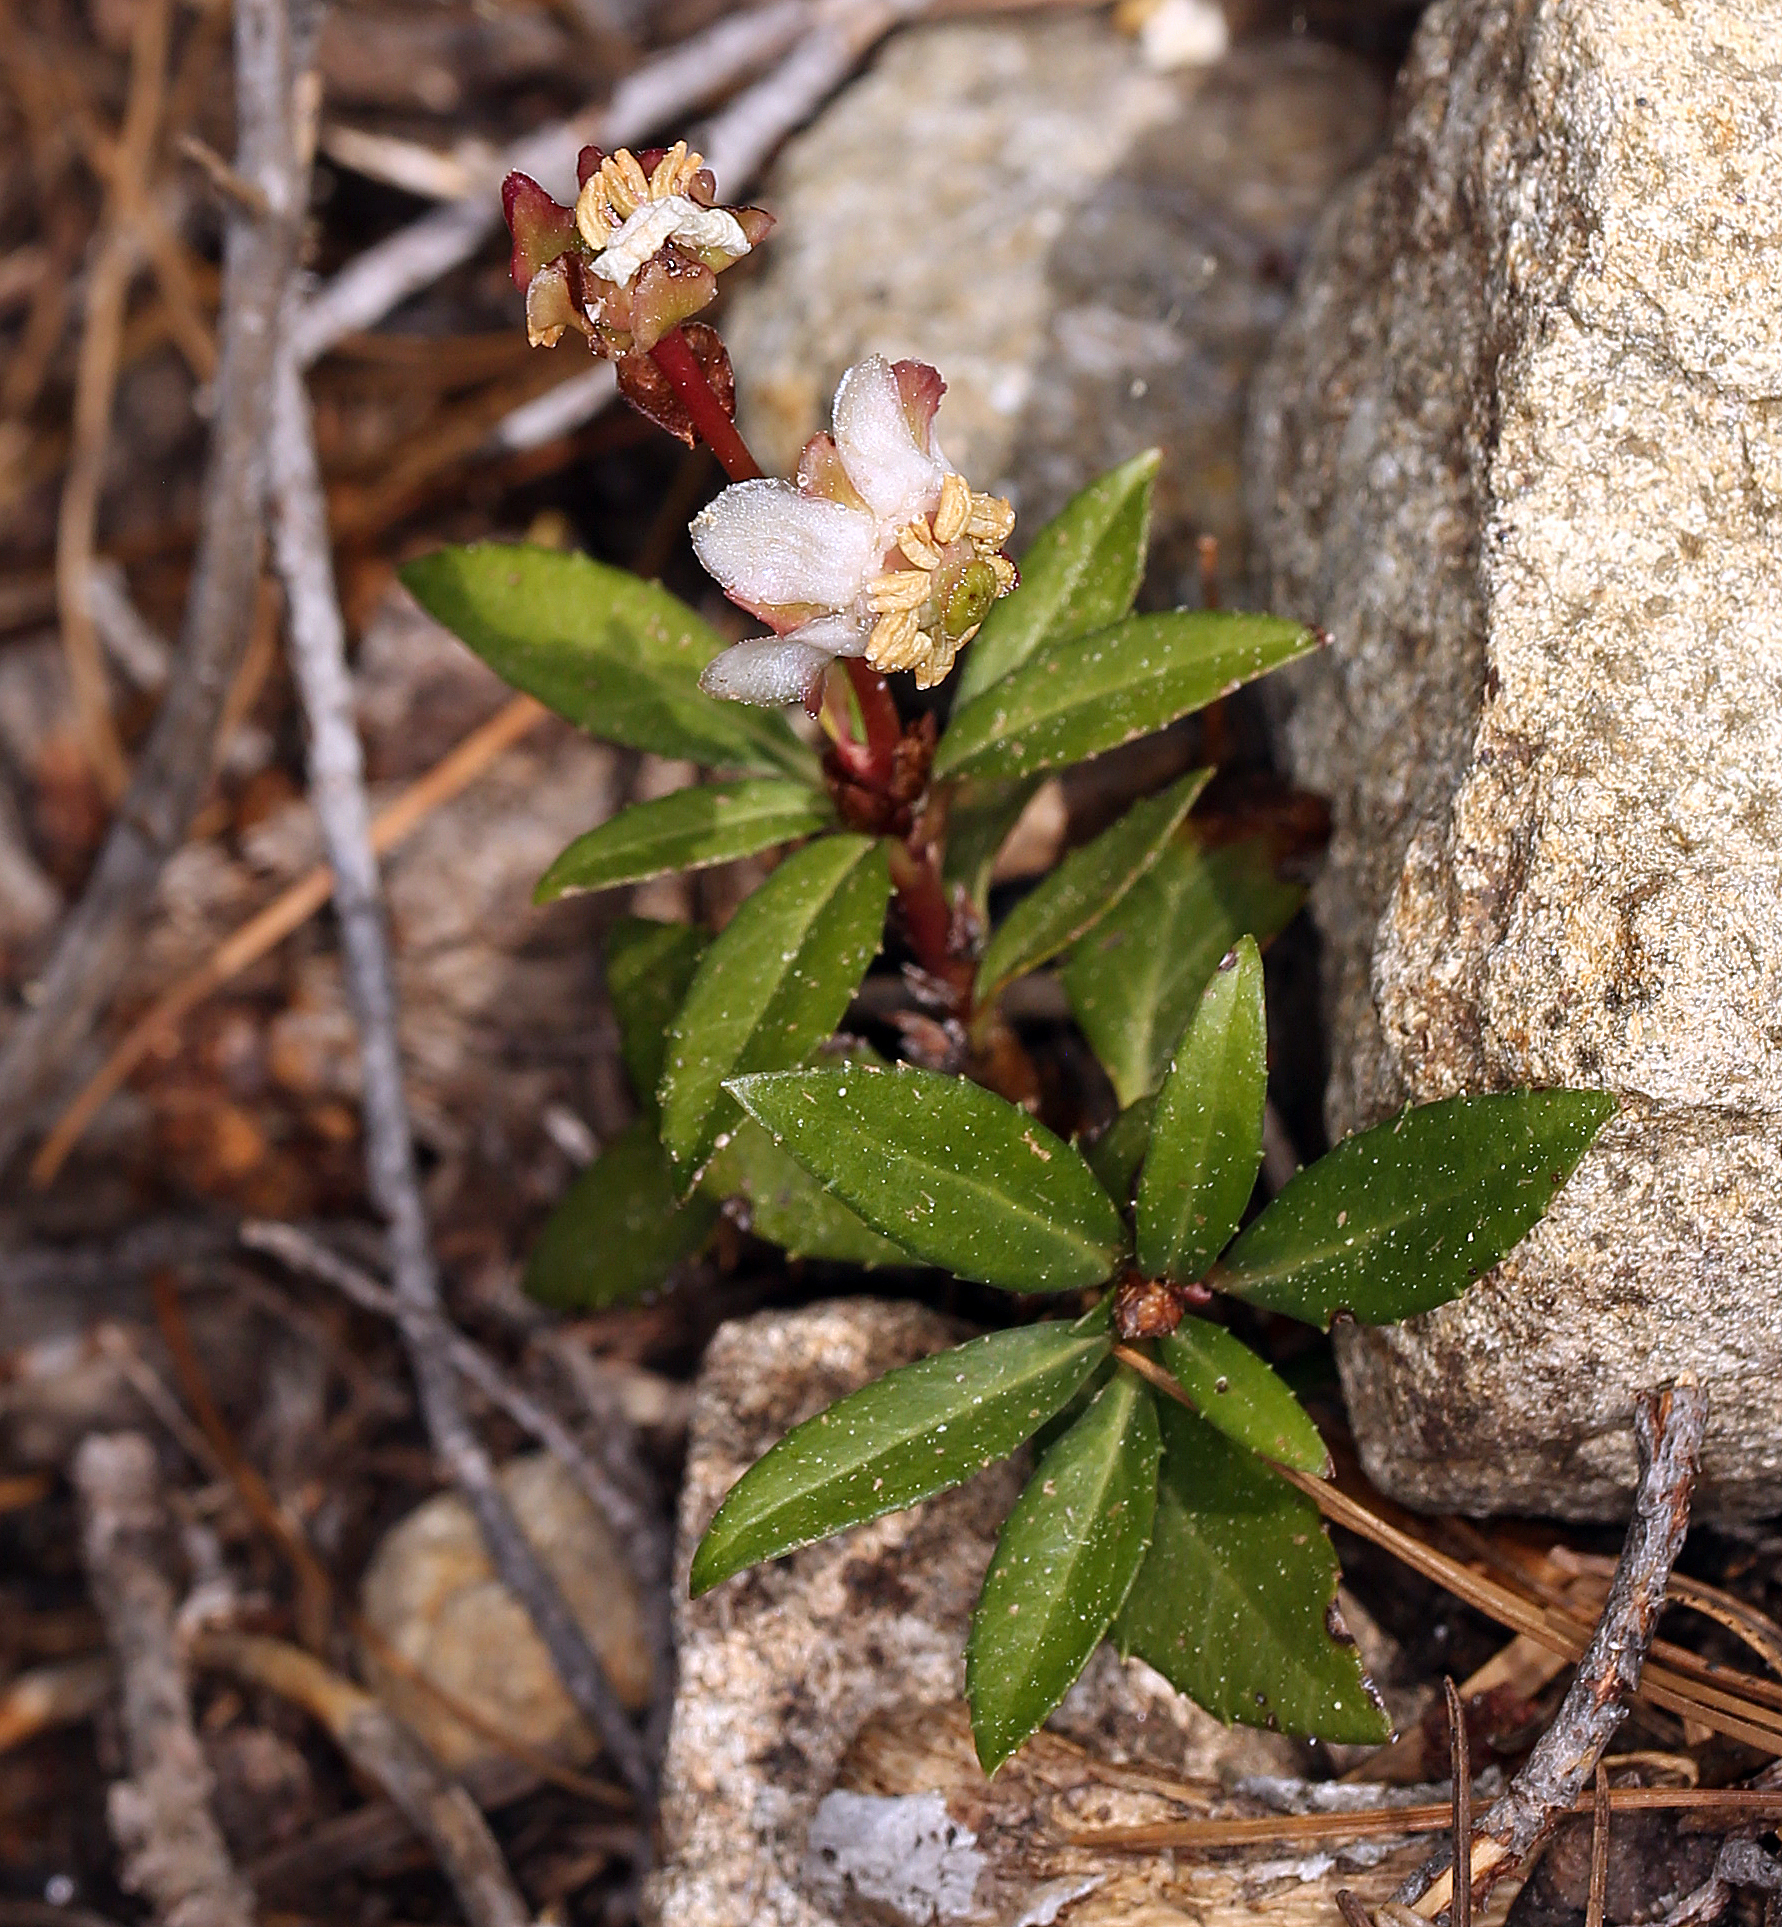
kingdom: Plantae
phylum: Tracheophyta
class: Magnoliopsida
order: Ericales
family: Ericaceae
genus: Chimaphila
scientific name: Chimaphila menziesii
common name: Menzies' pipsissewa
